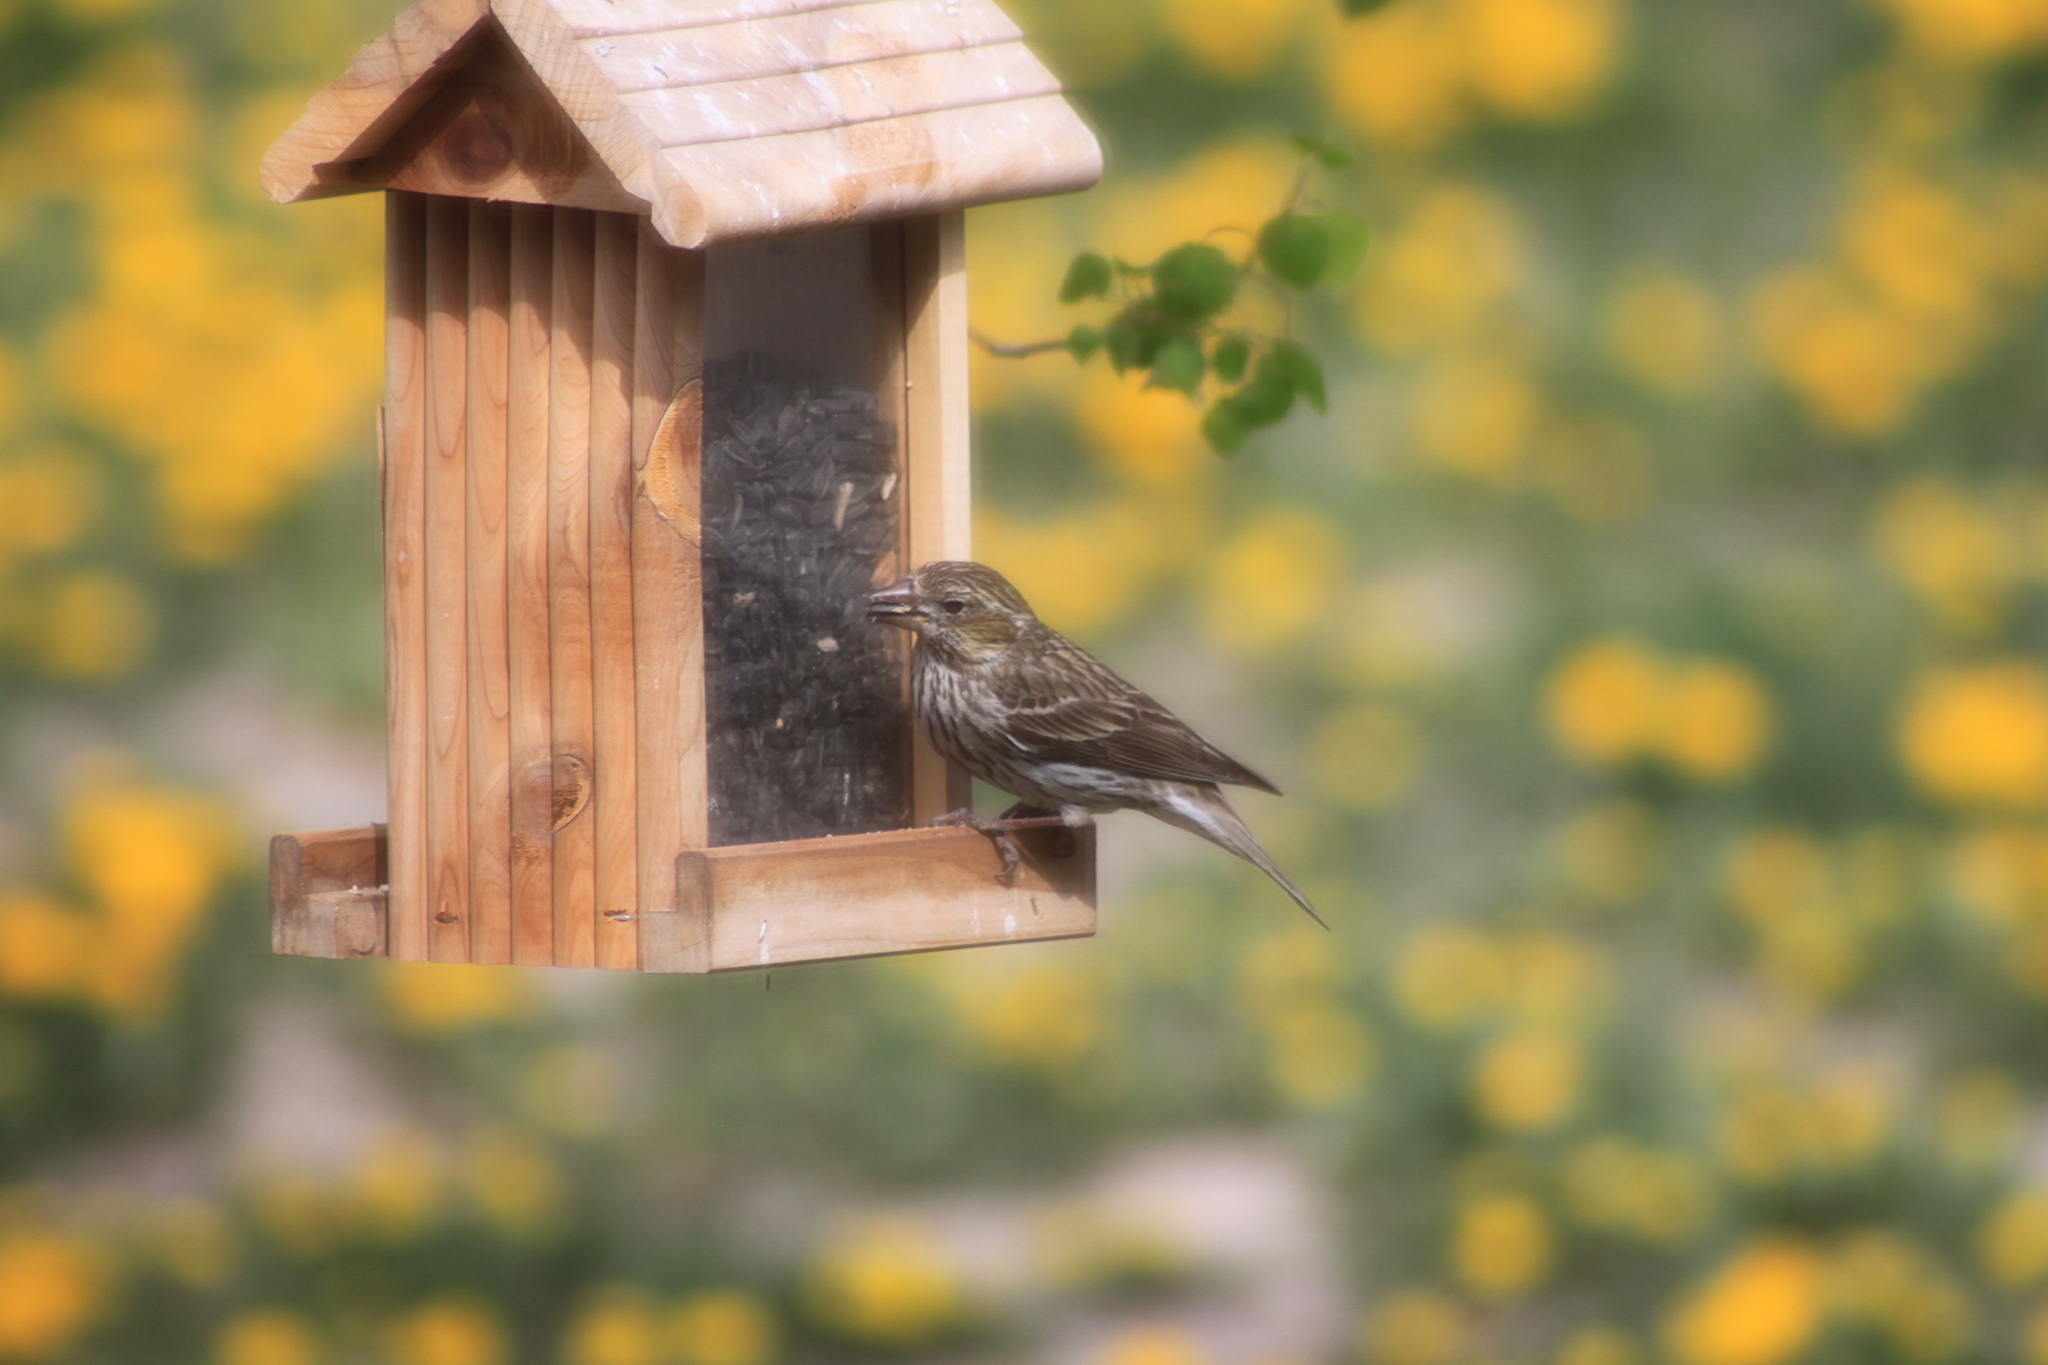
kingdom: Animalia
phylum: Chordata
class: Aves
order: Passeriformes
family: Fringillidae
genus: Haemorhous
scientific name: Haemorhous cassinii
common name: Cassin's finch
